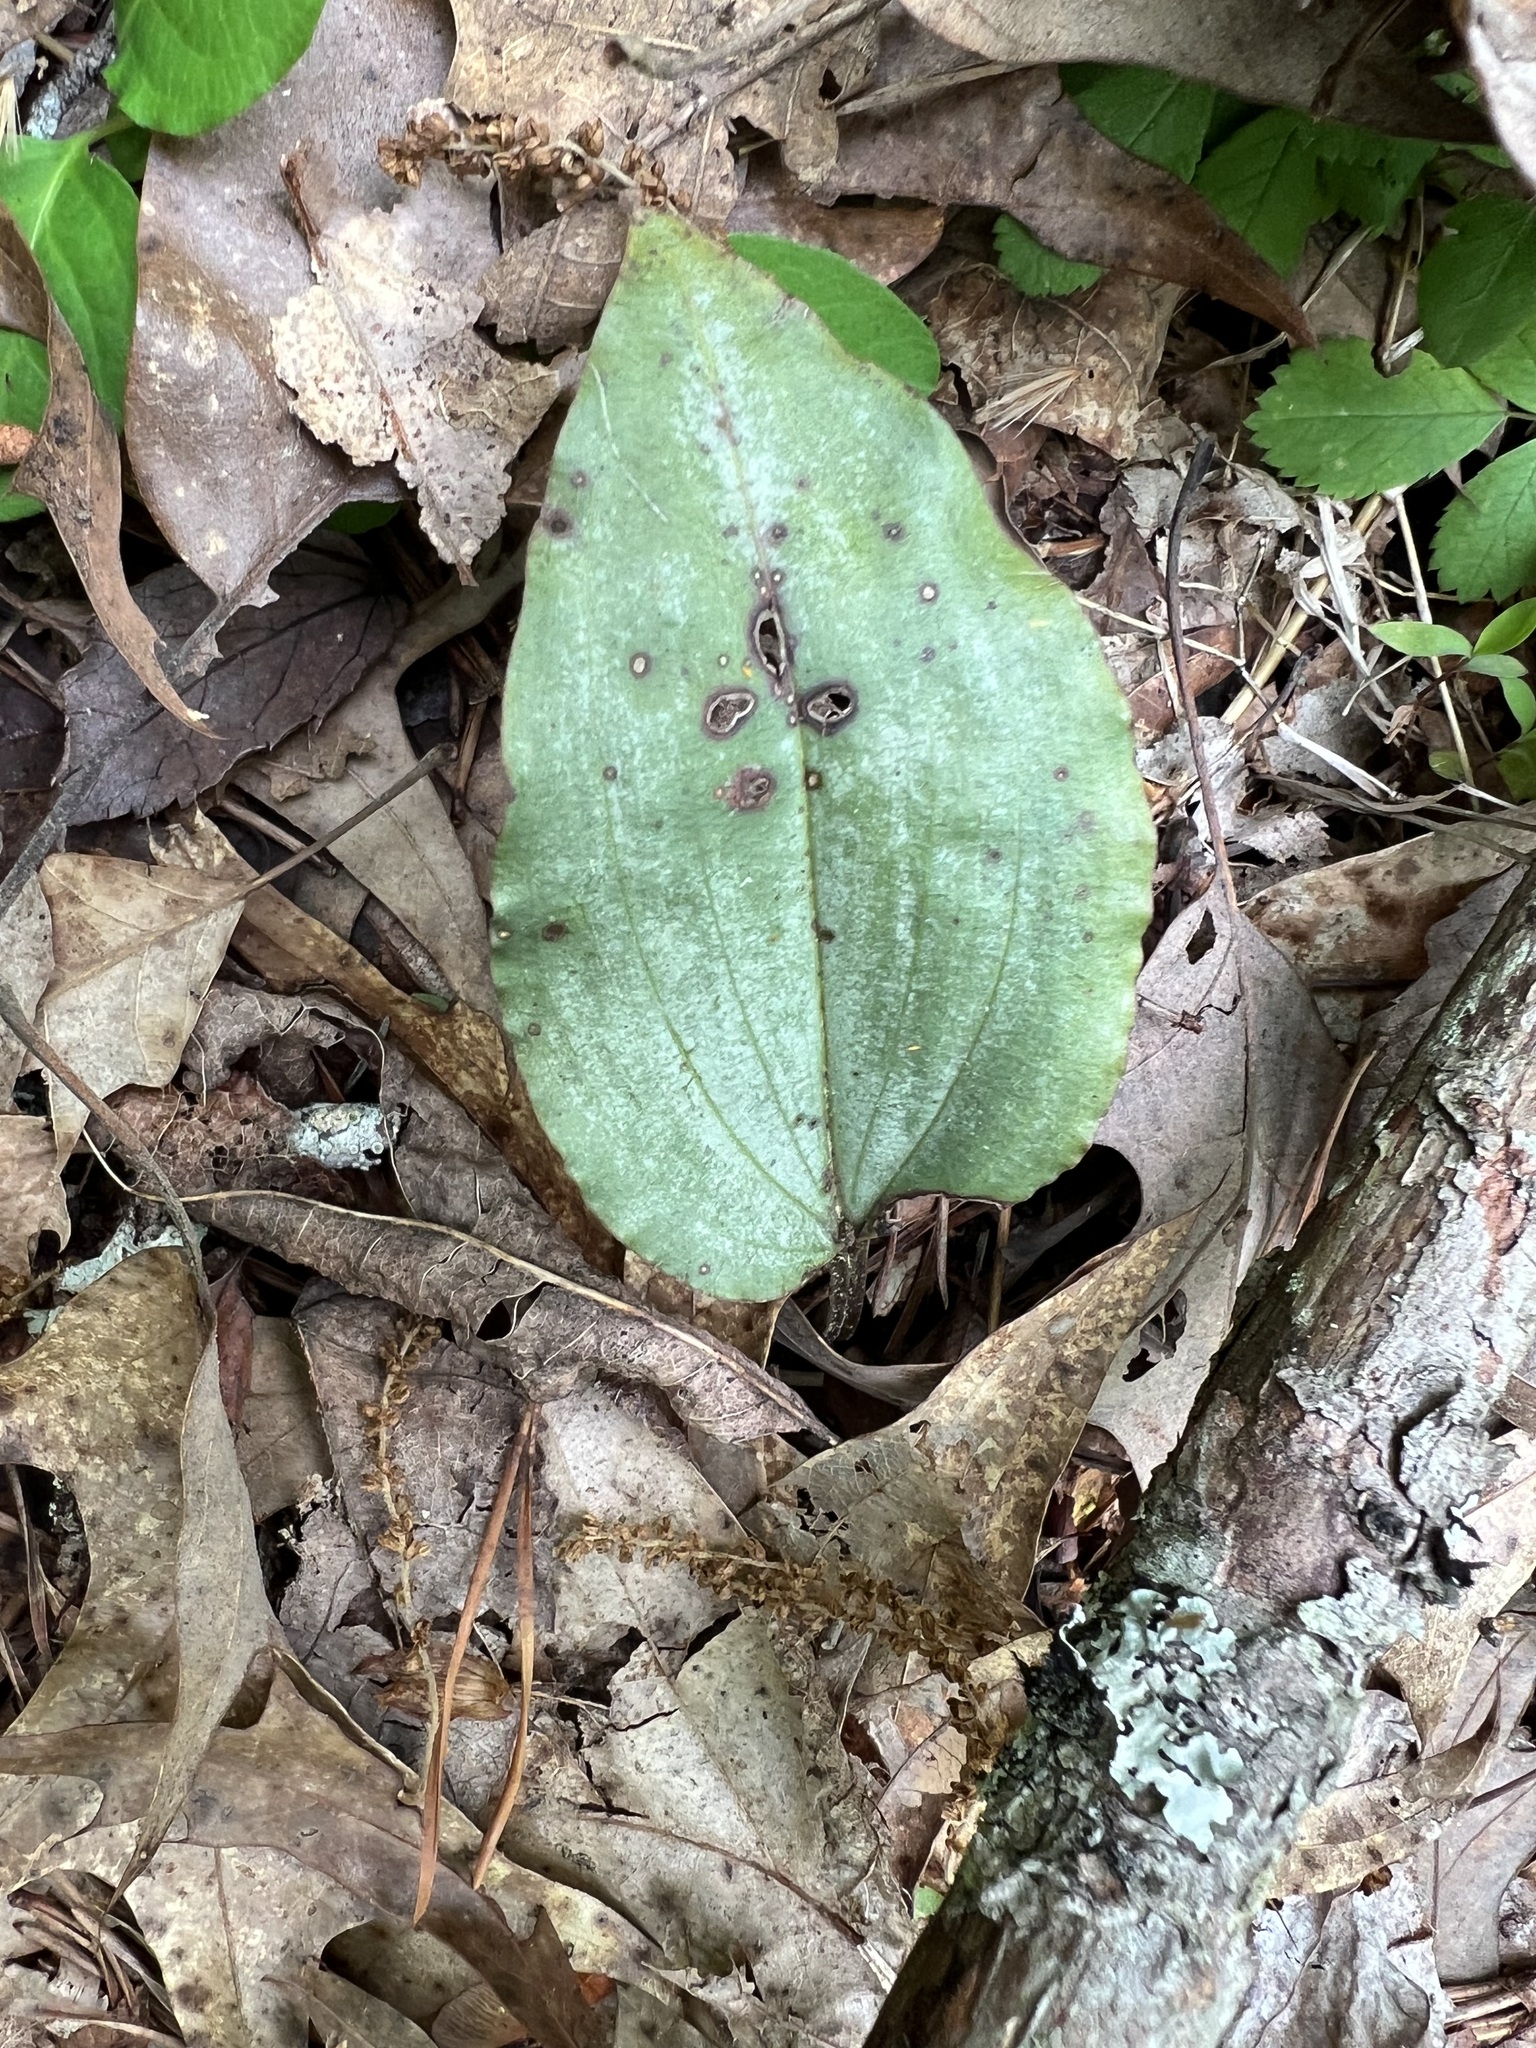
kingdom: Plantae
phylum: Tracheophyta
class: Liliopsida
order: Asparagales
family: Orchidaceae
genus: Tipularia
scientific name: Tipularia discolor
